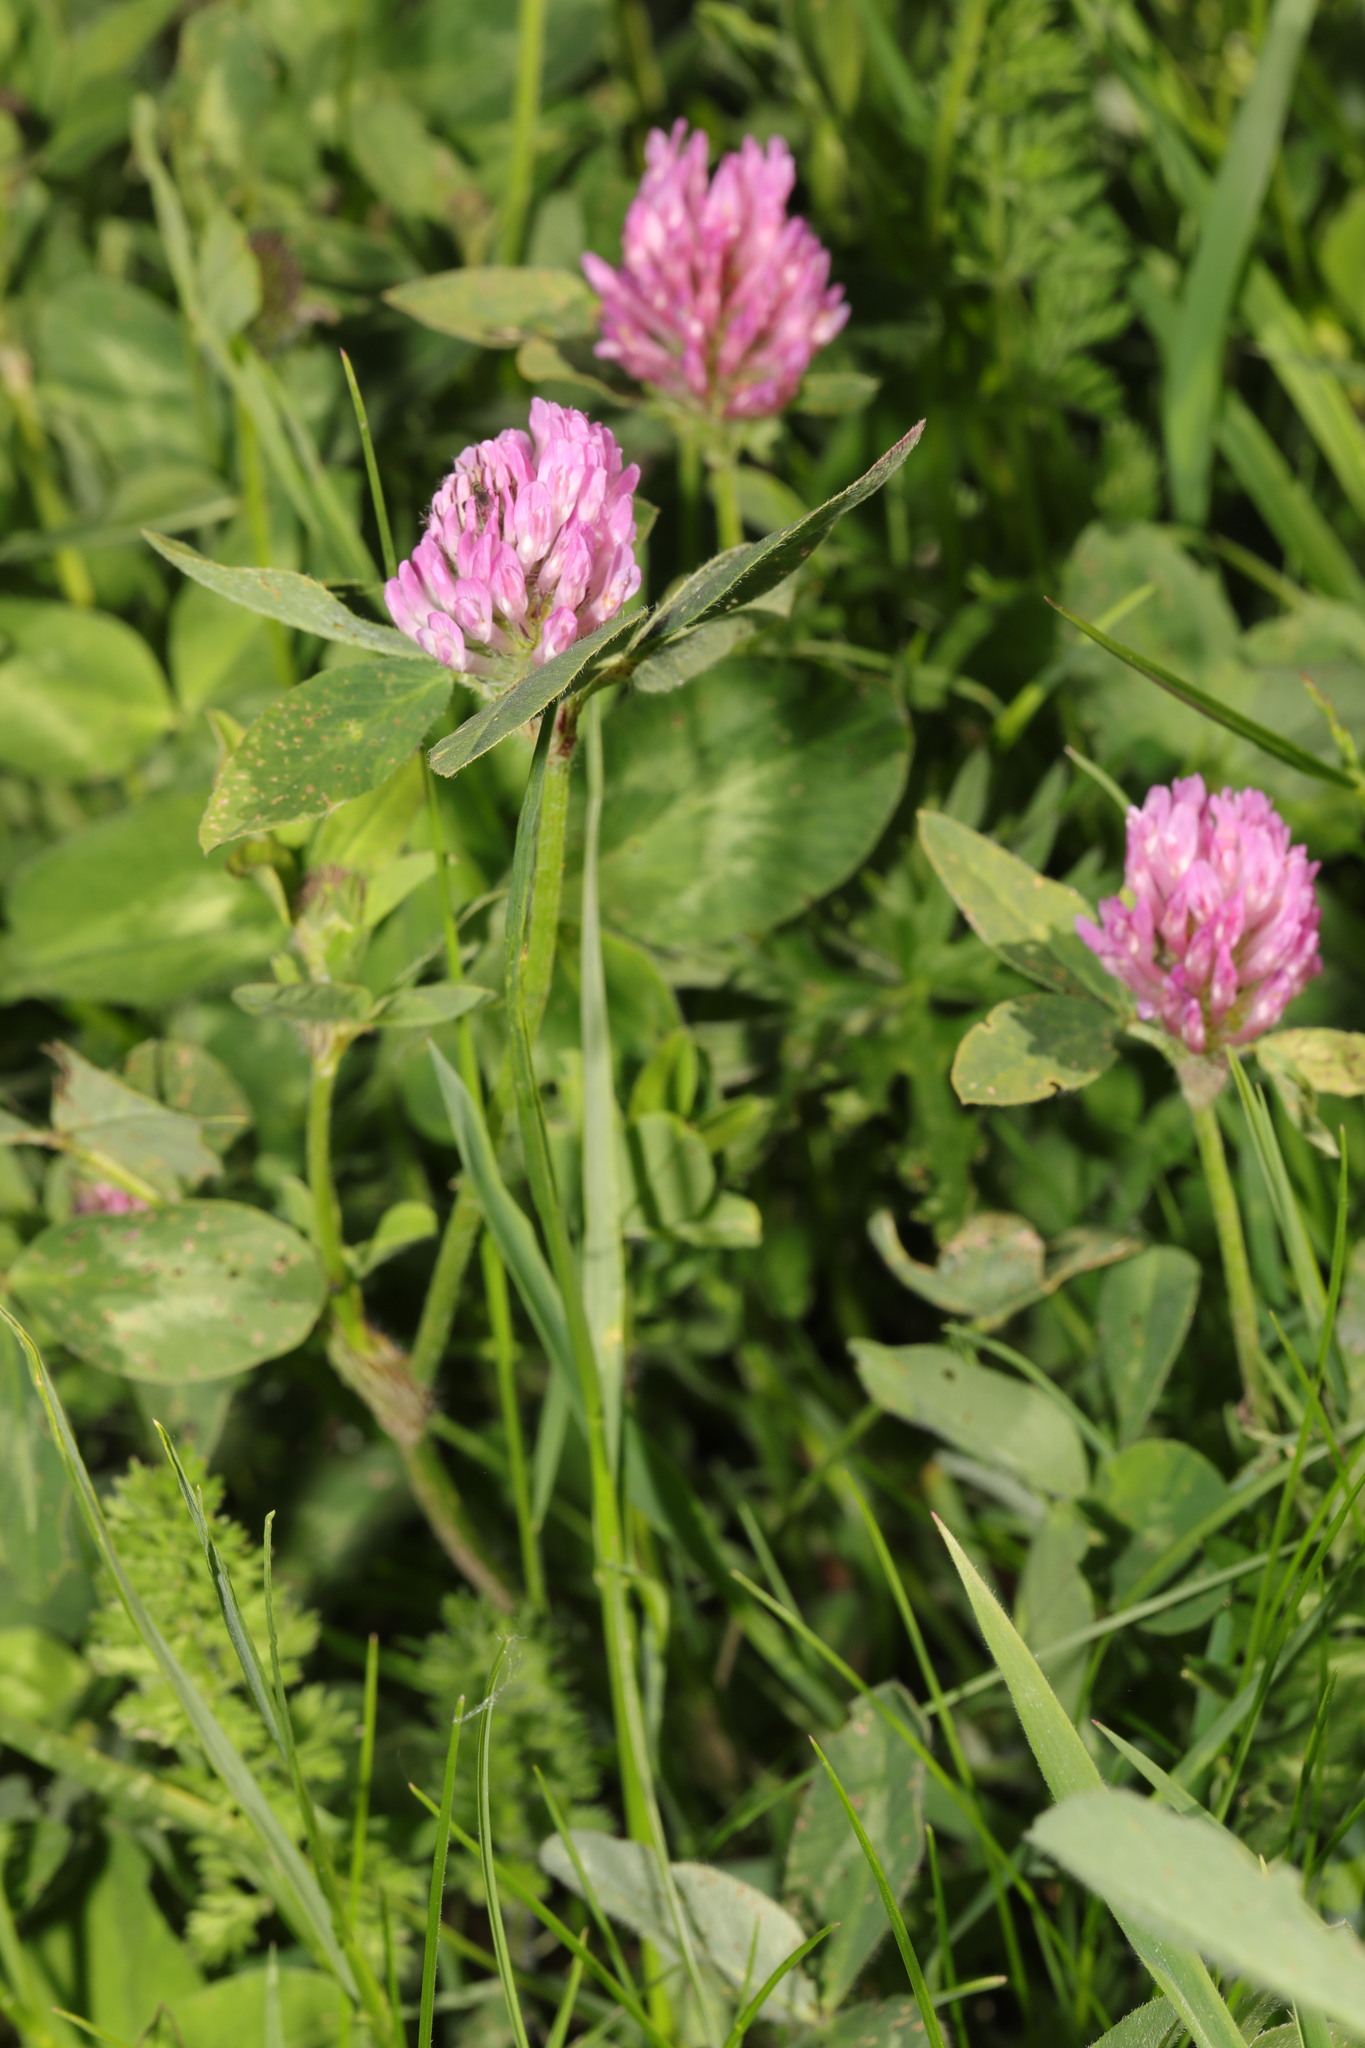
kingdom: Plantae
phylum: Tracheophyta
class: Magnoliopsida
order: Fabales
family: Fabaceae
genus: Trifolium
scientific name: Trifolium pratense
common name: Red clover
